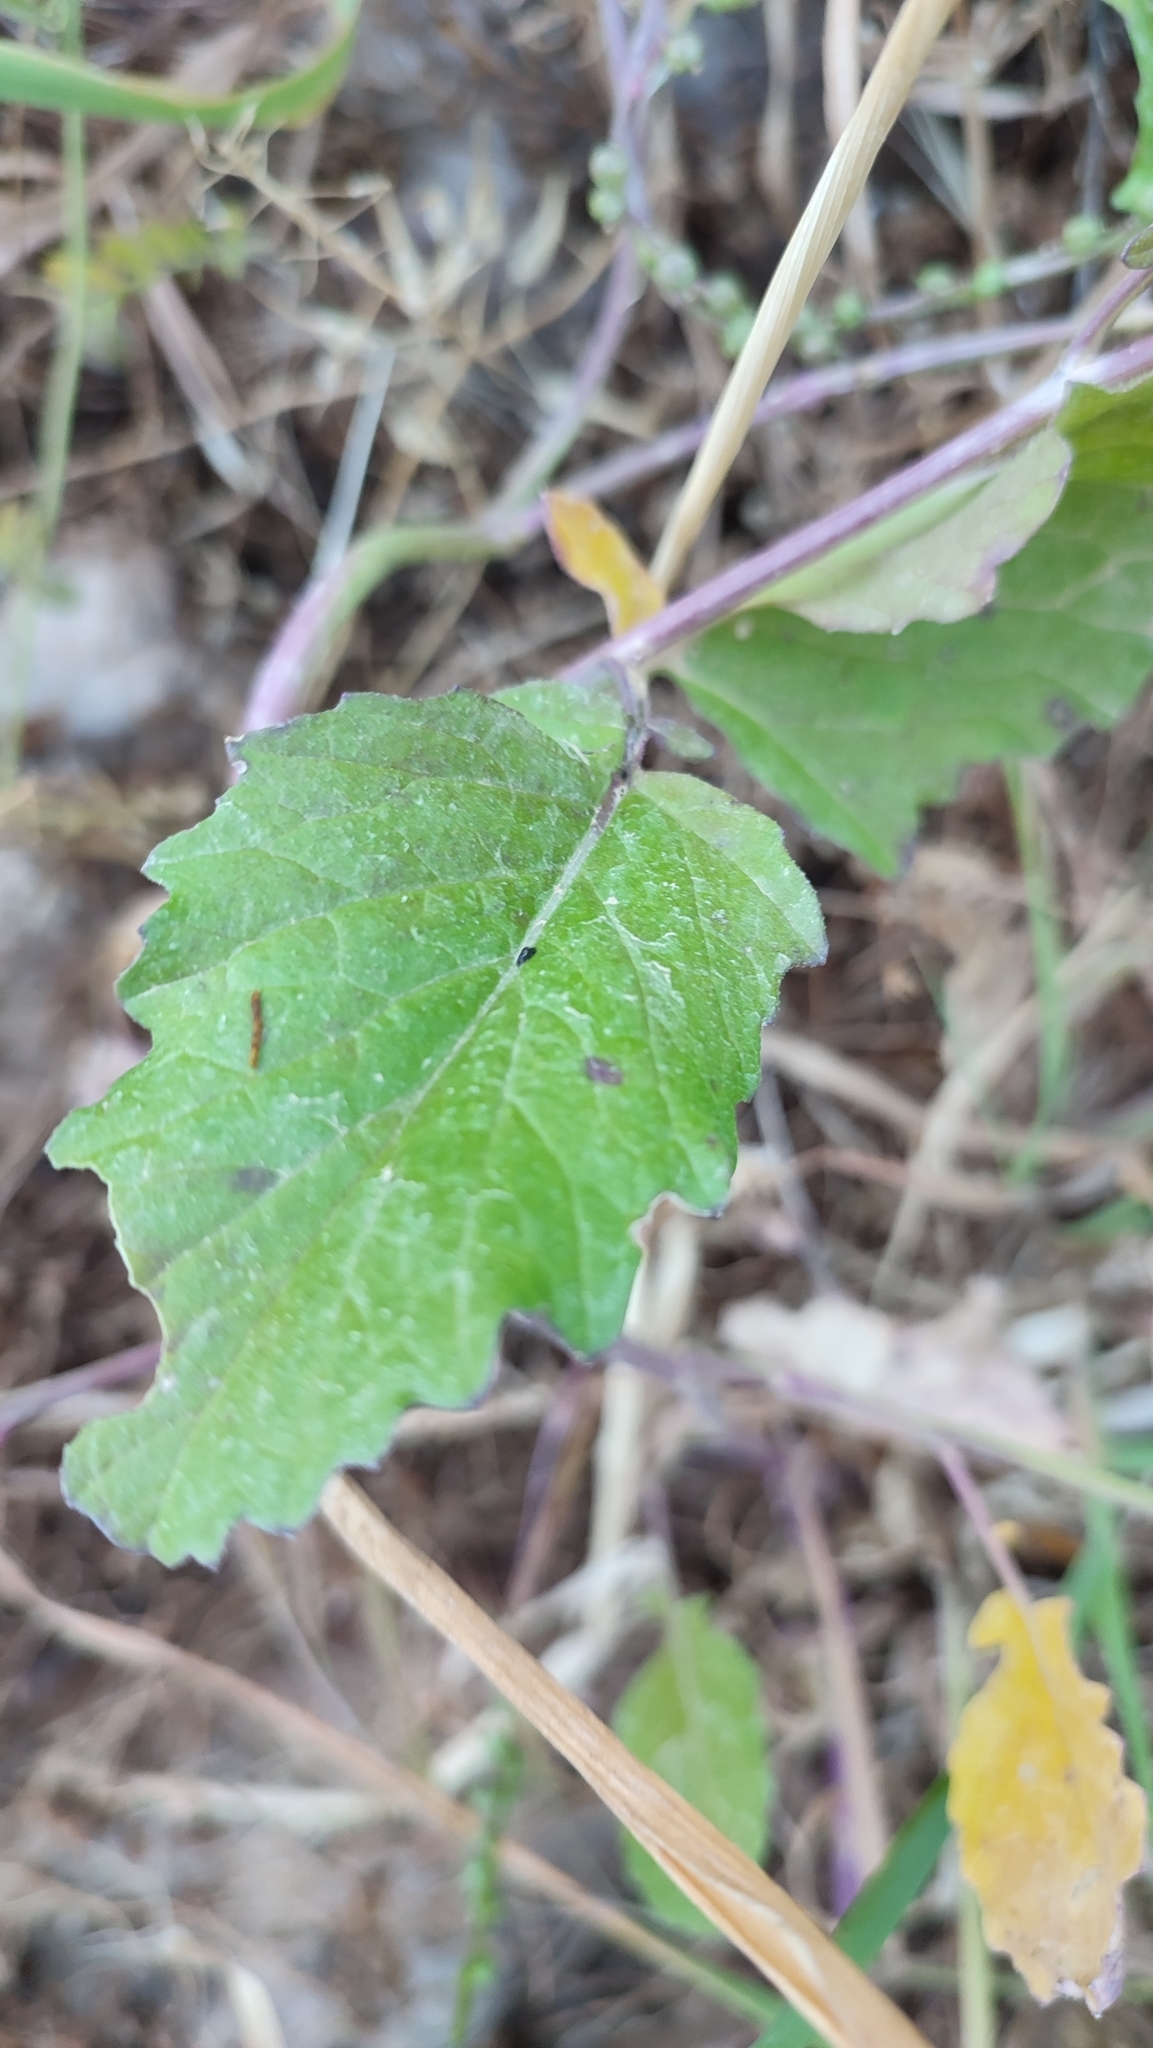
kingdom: Plantae
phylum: Tracheophyta
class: Magnoliopsida
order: Brassicales
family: Brassicaceae
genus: Rapistrum
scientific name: Rapistrum rugosum
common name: Annual bastardcabbage
